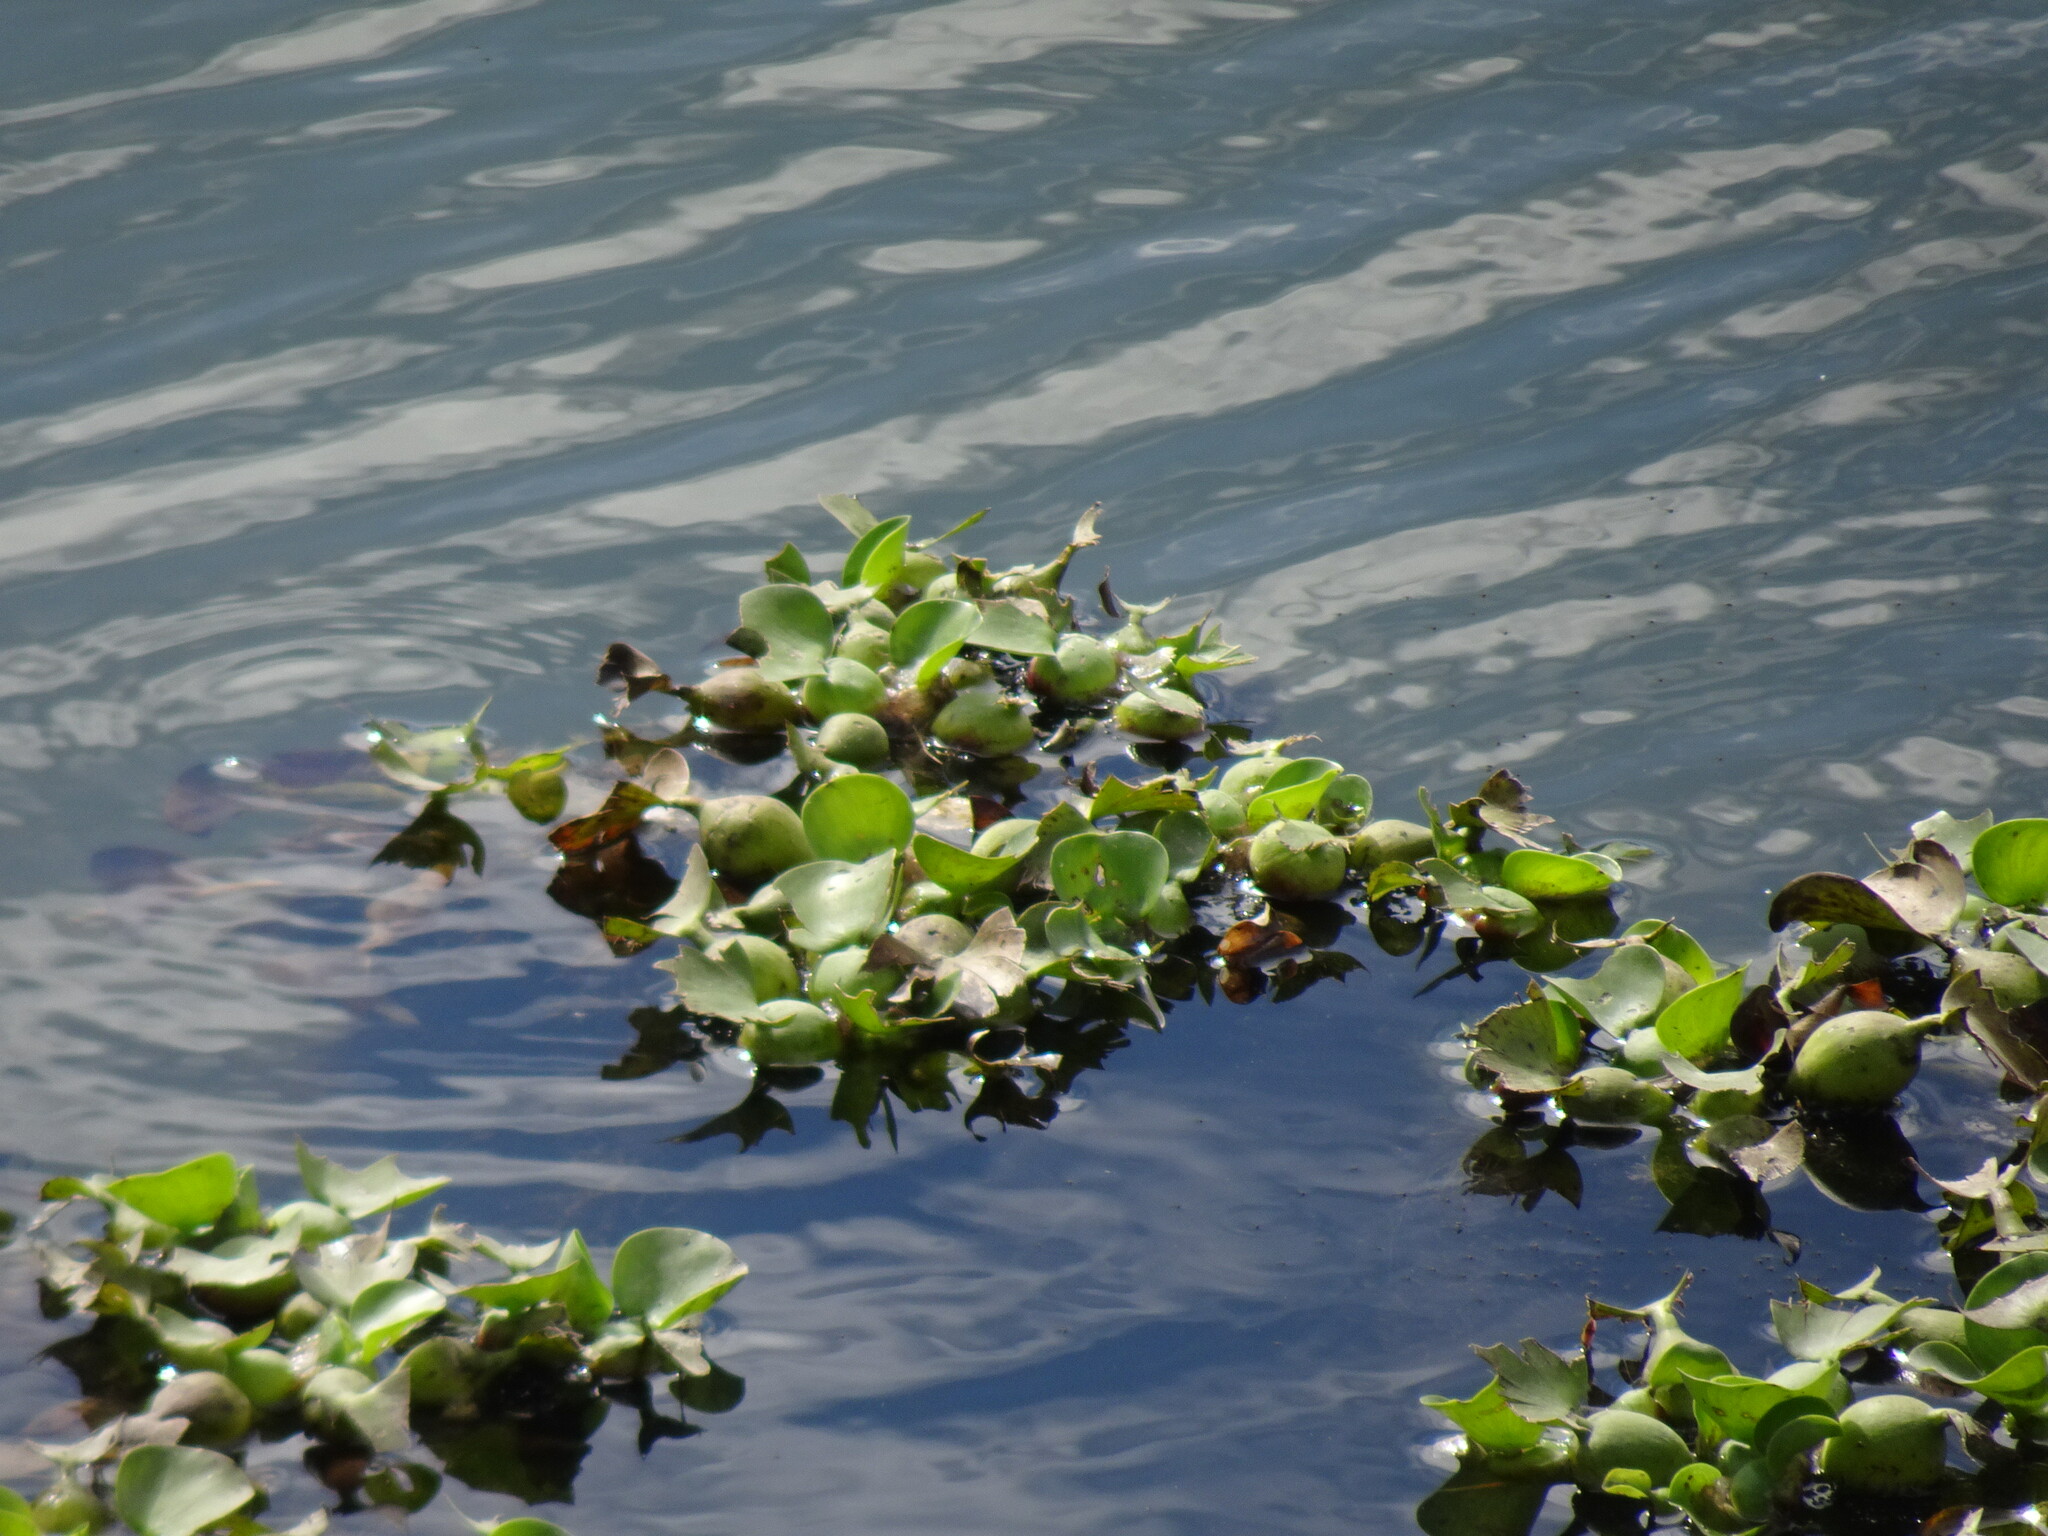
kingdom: Plantae
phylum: Tracheophyta
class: Liliopsida
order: Commelinales
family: Pontederiaceae
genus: Pontederia
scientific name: Pontederia crassipes
